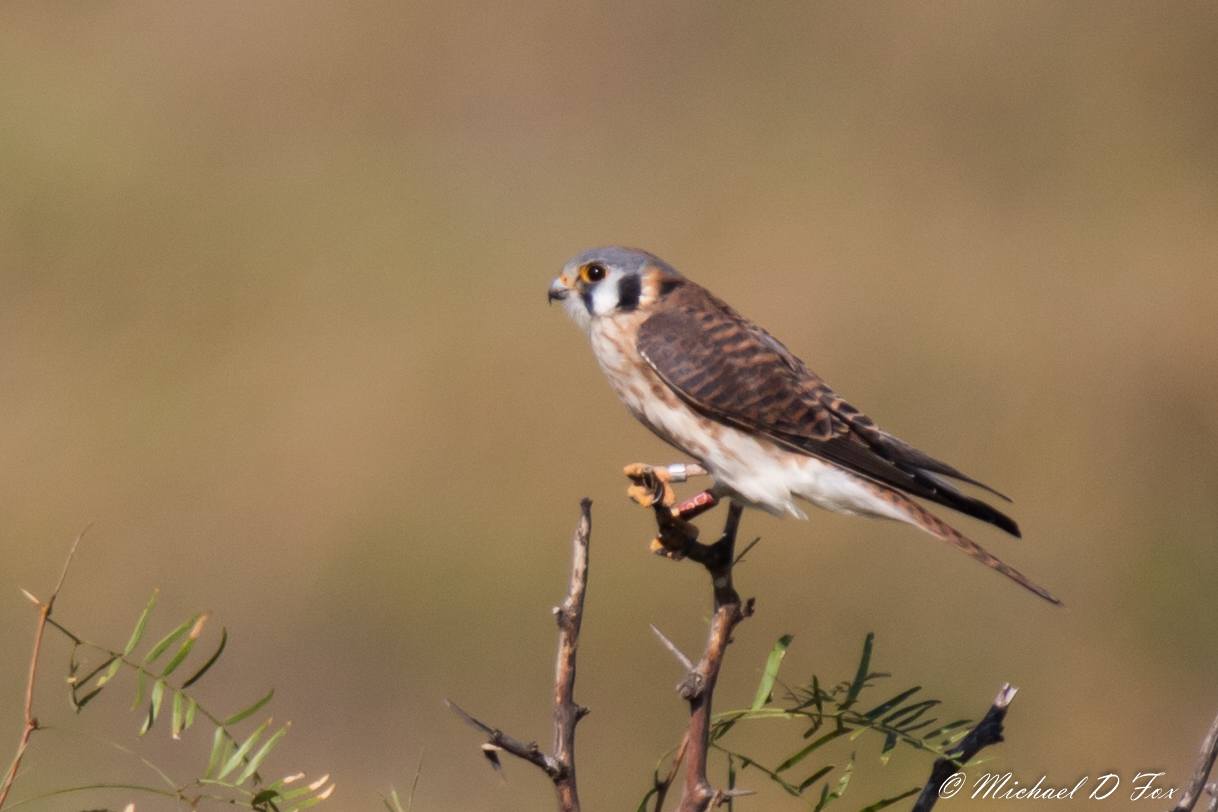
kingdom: Animalia
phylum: Chordata
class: Aves
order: Falconiformes
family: Falconidae
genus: Falco
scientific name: Falco sparverius
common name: American kestrel
